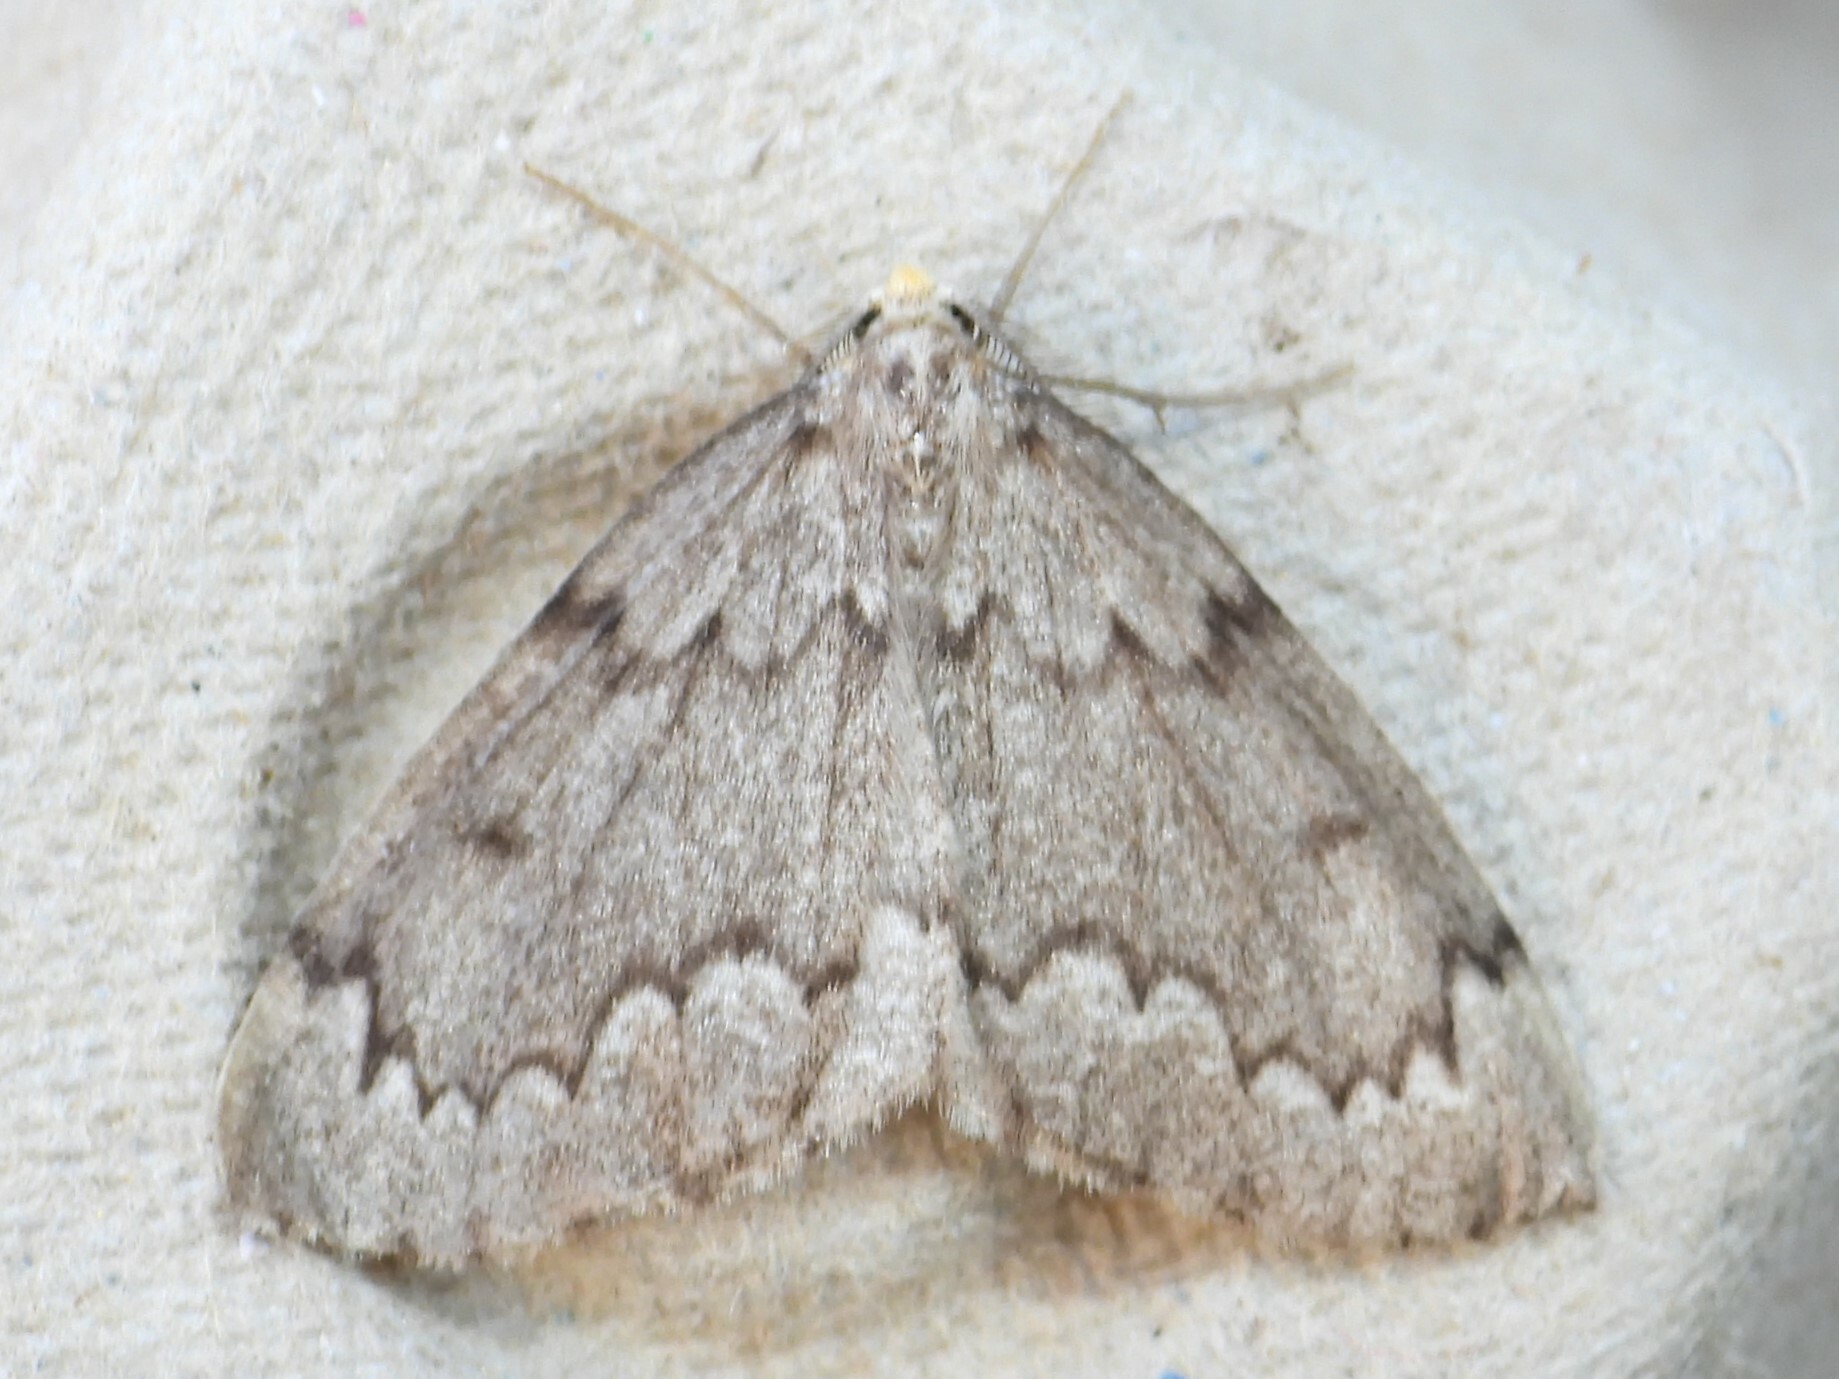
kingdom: Animalia
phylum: Arthropoda
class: Insecta
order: Lepidoptera
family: Geometridae
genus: Nepytia
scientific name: Nepytia canosaria
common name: False hemlock looper
